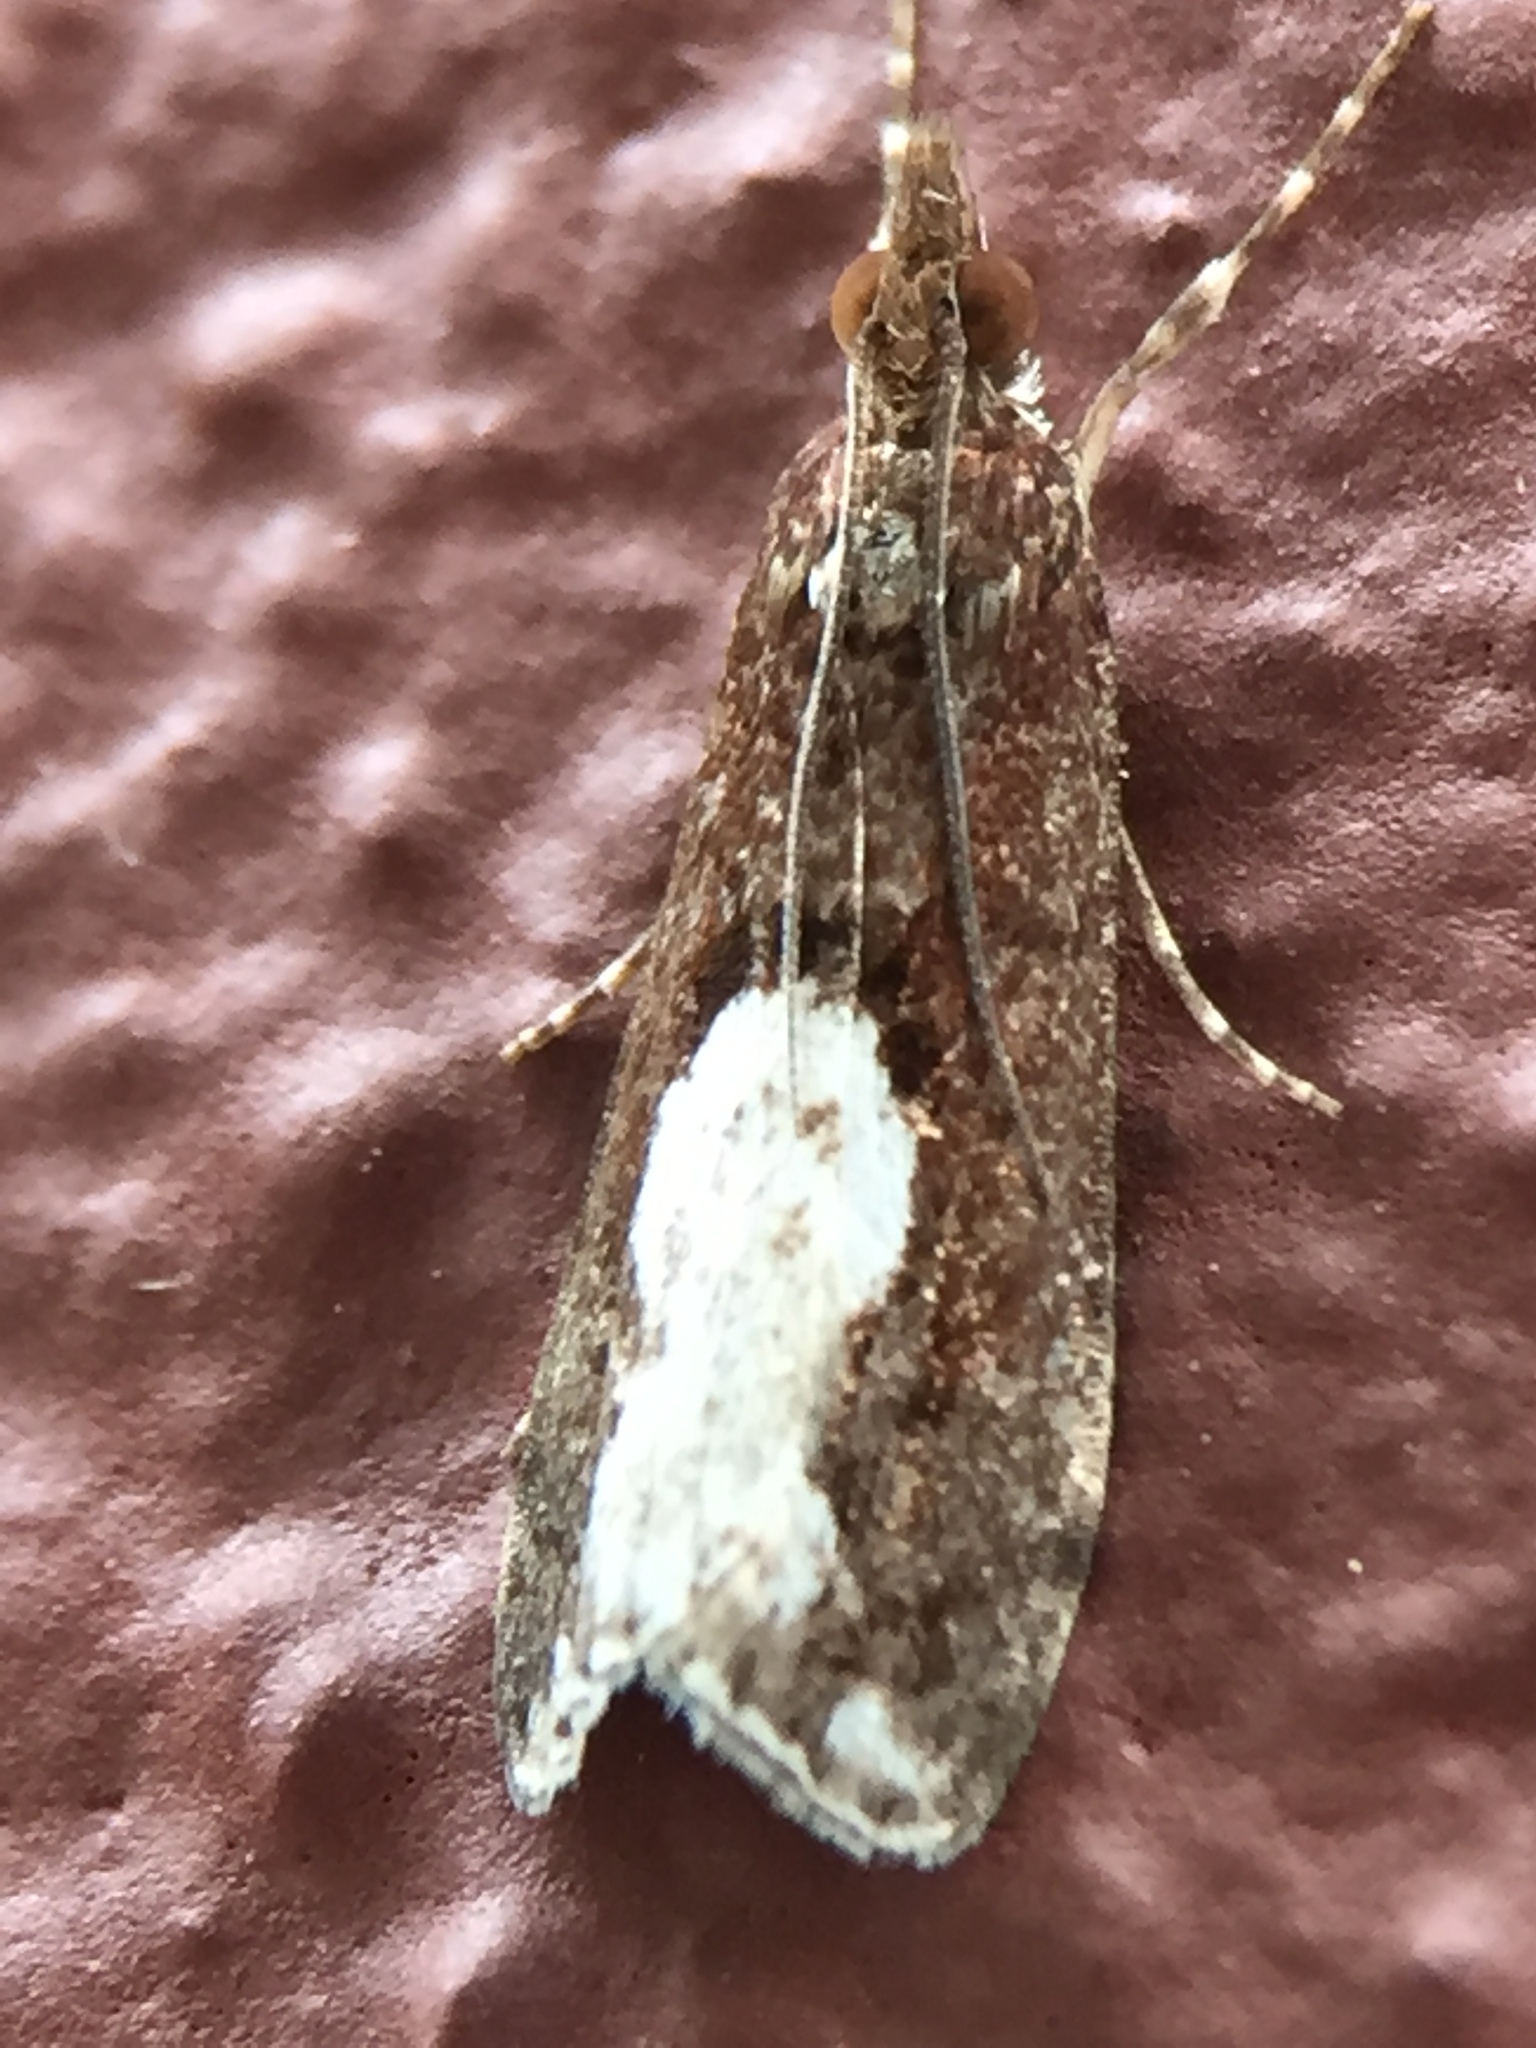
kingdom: Animalia
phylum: Arthropoda
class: Insecta
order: Lepidoptera
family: Crambidae
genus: Eudonia
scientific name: Eudonia hemiplaca
